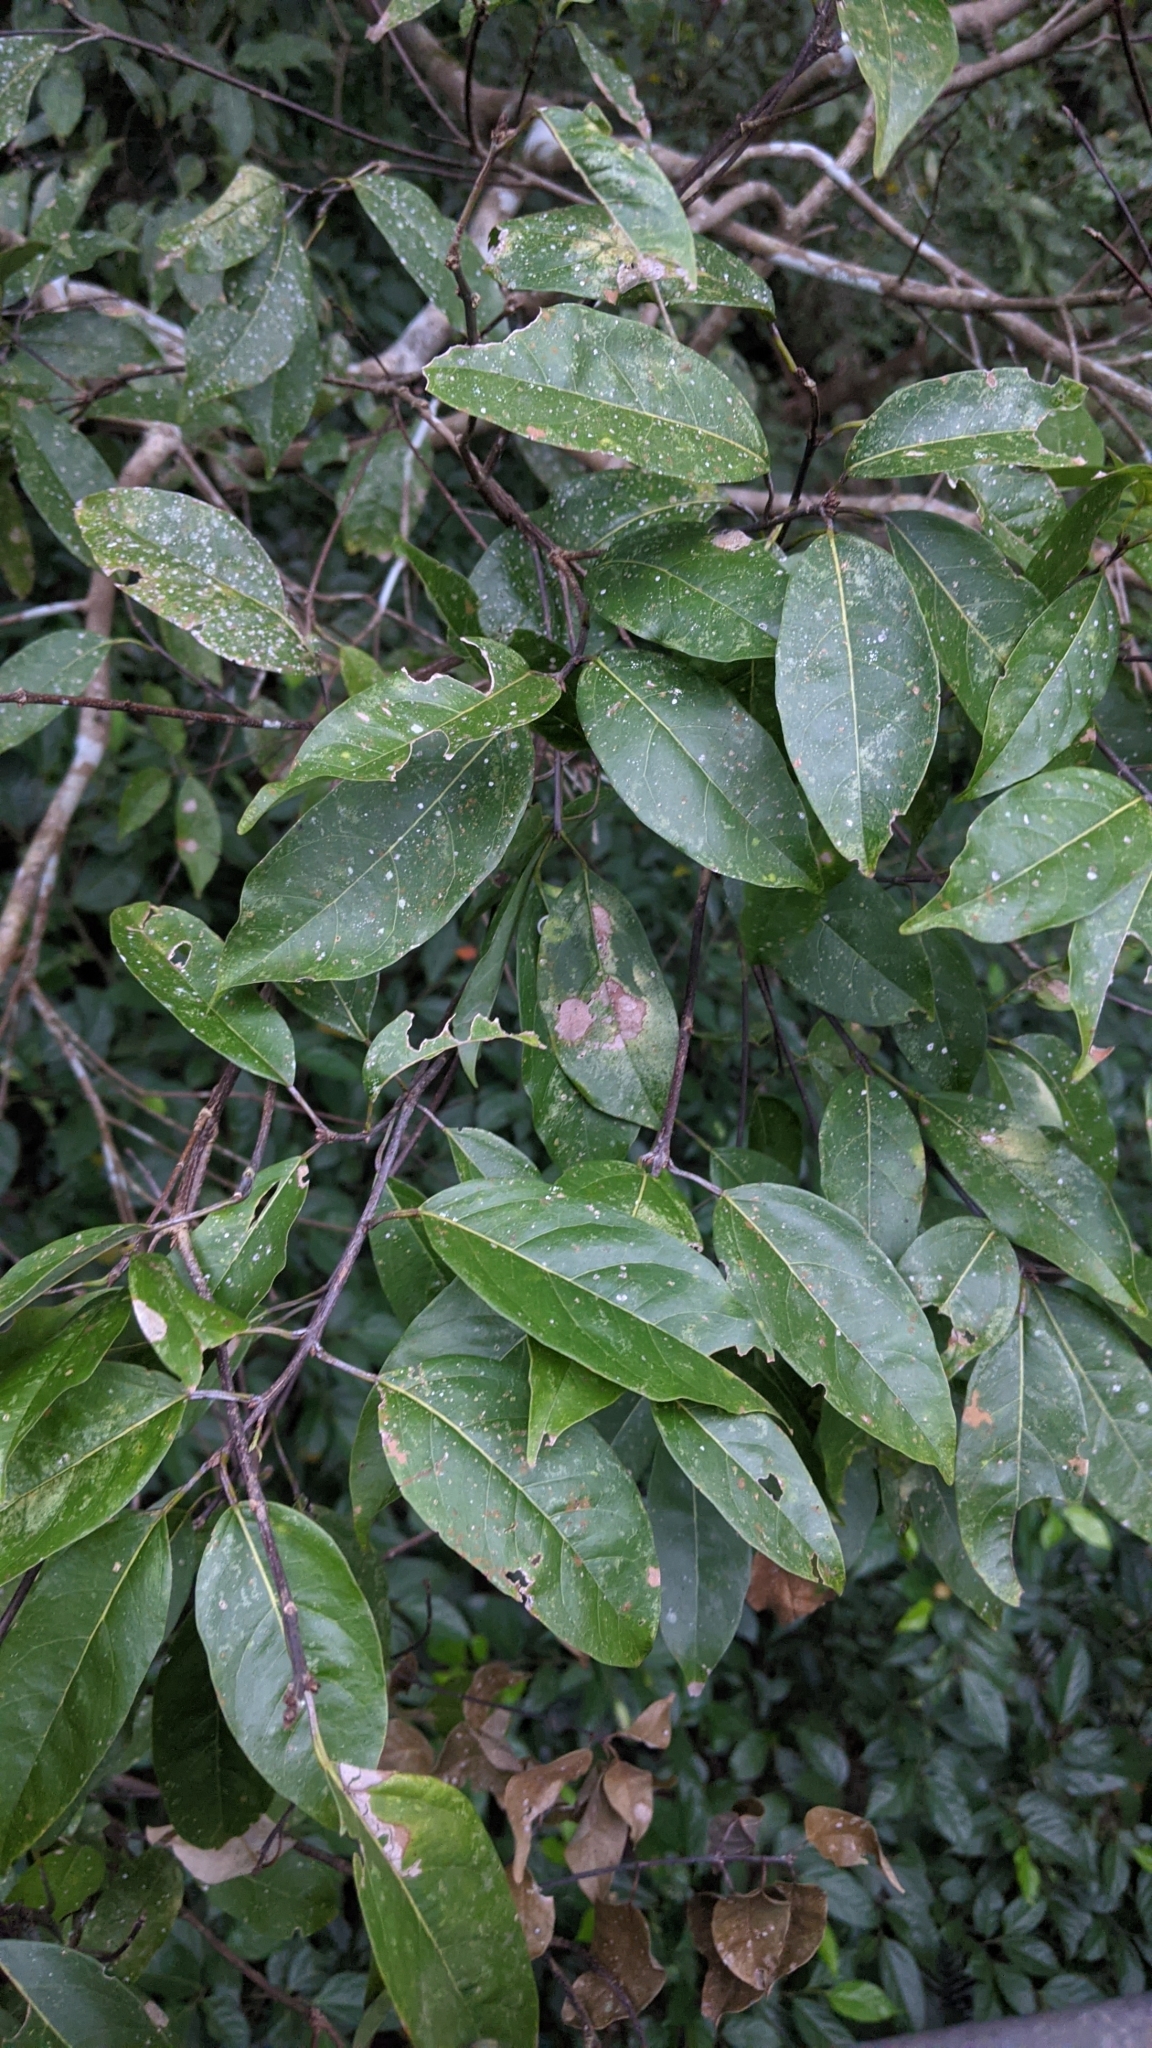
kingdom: Plantae
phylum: Tracheophyta
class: Magnoliopsida
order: Sapindales
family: Sapindaceae
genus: Acer
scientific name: Acer oblongum
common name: Himalayan maple
